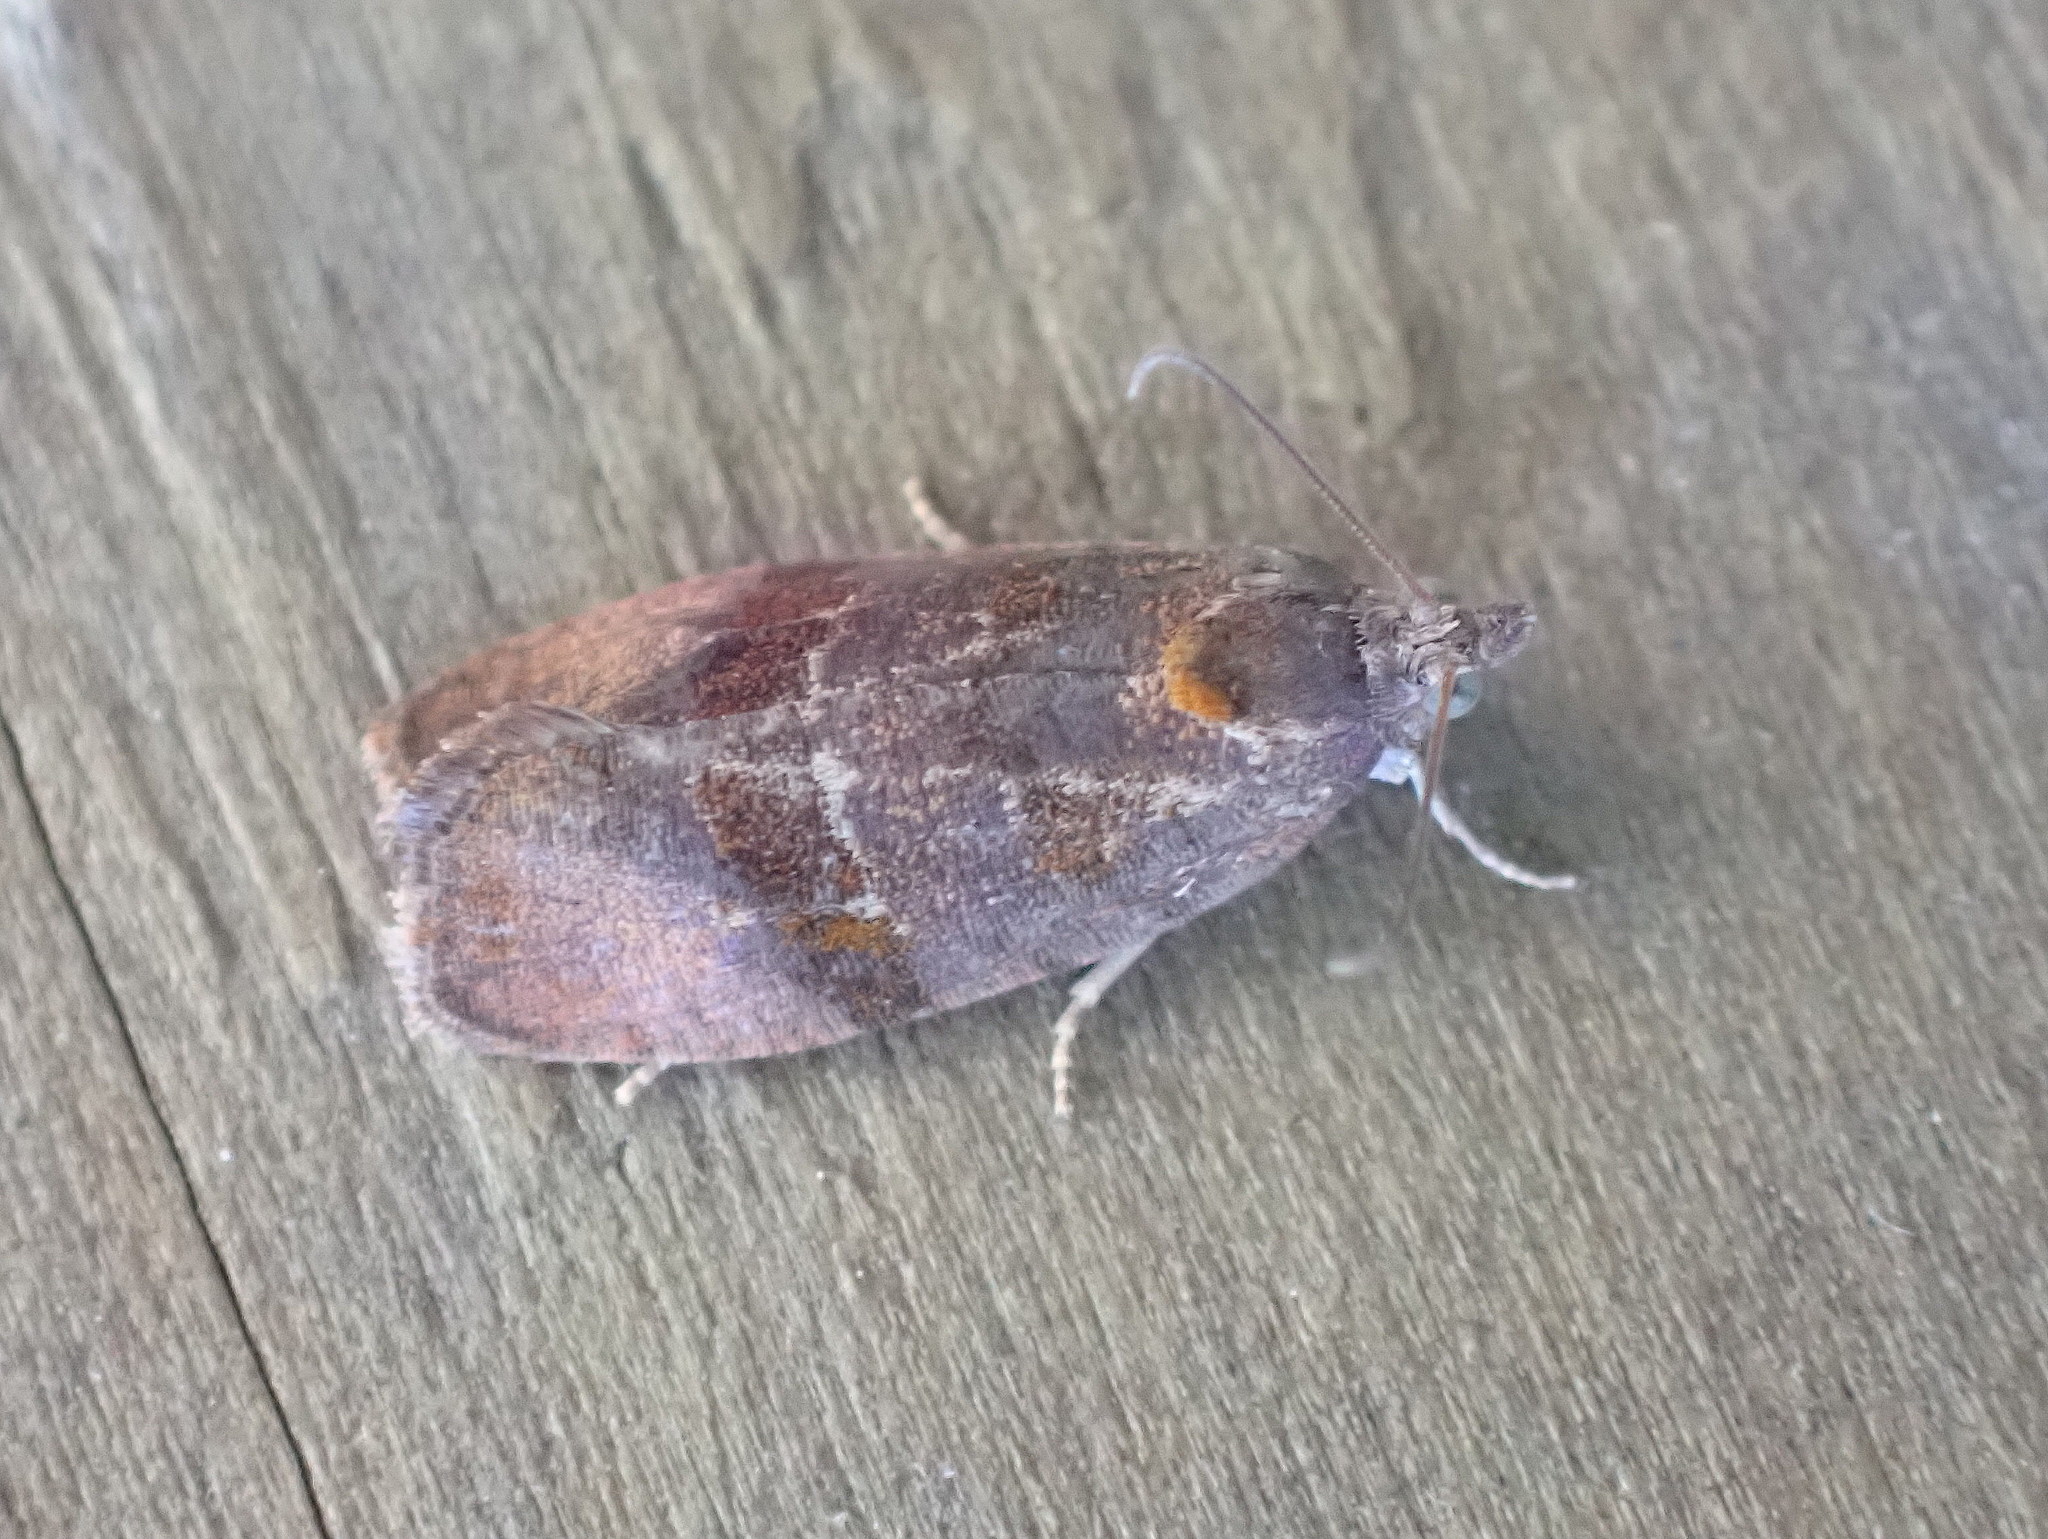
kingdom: Animalia
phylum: Arthropoda
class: Insecta
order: Lepidoptera
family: Tortricidae
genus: Evora
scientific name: Evora hemidesma
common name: Spirea leaftier moth
